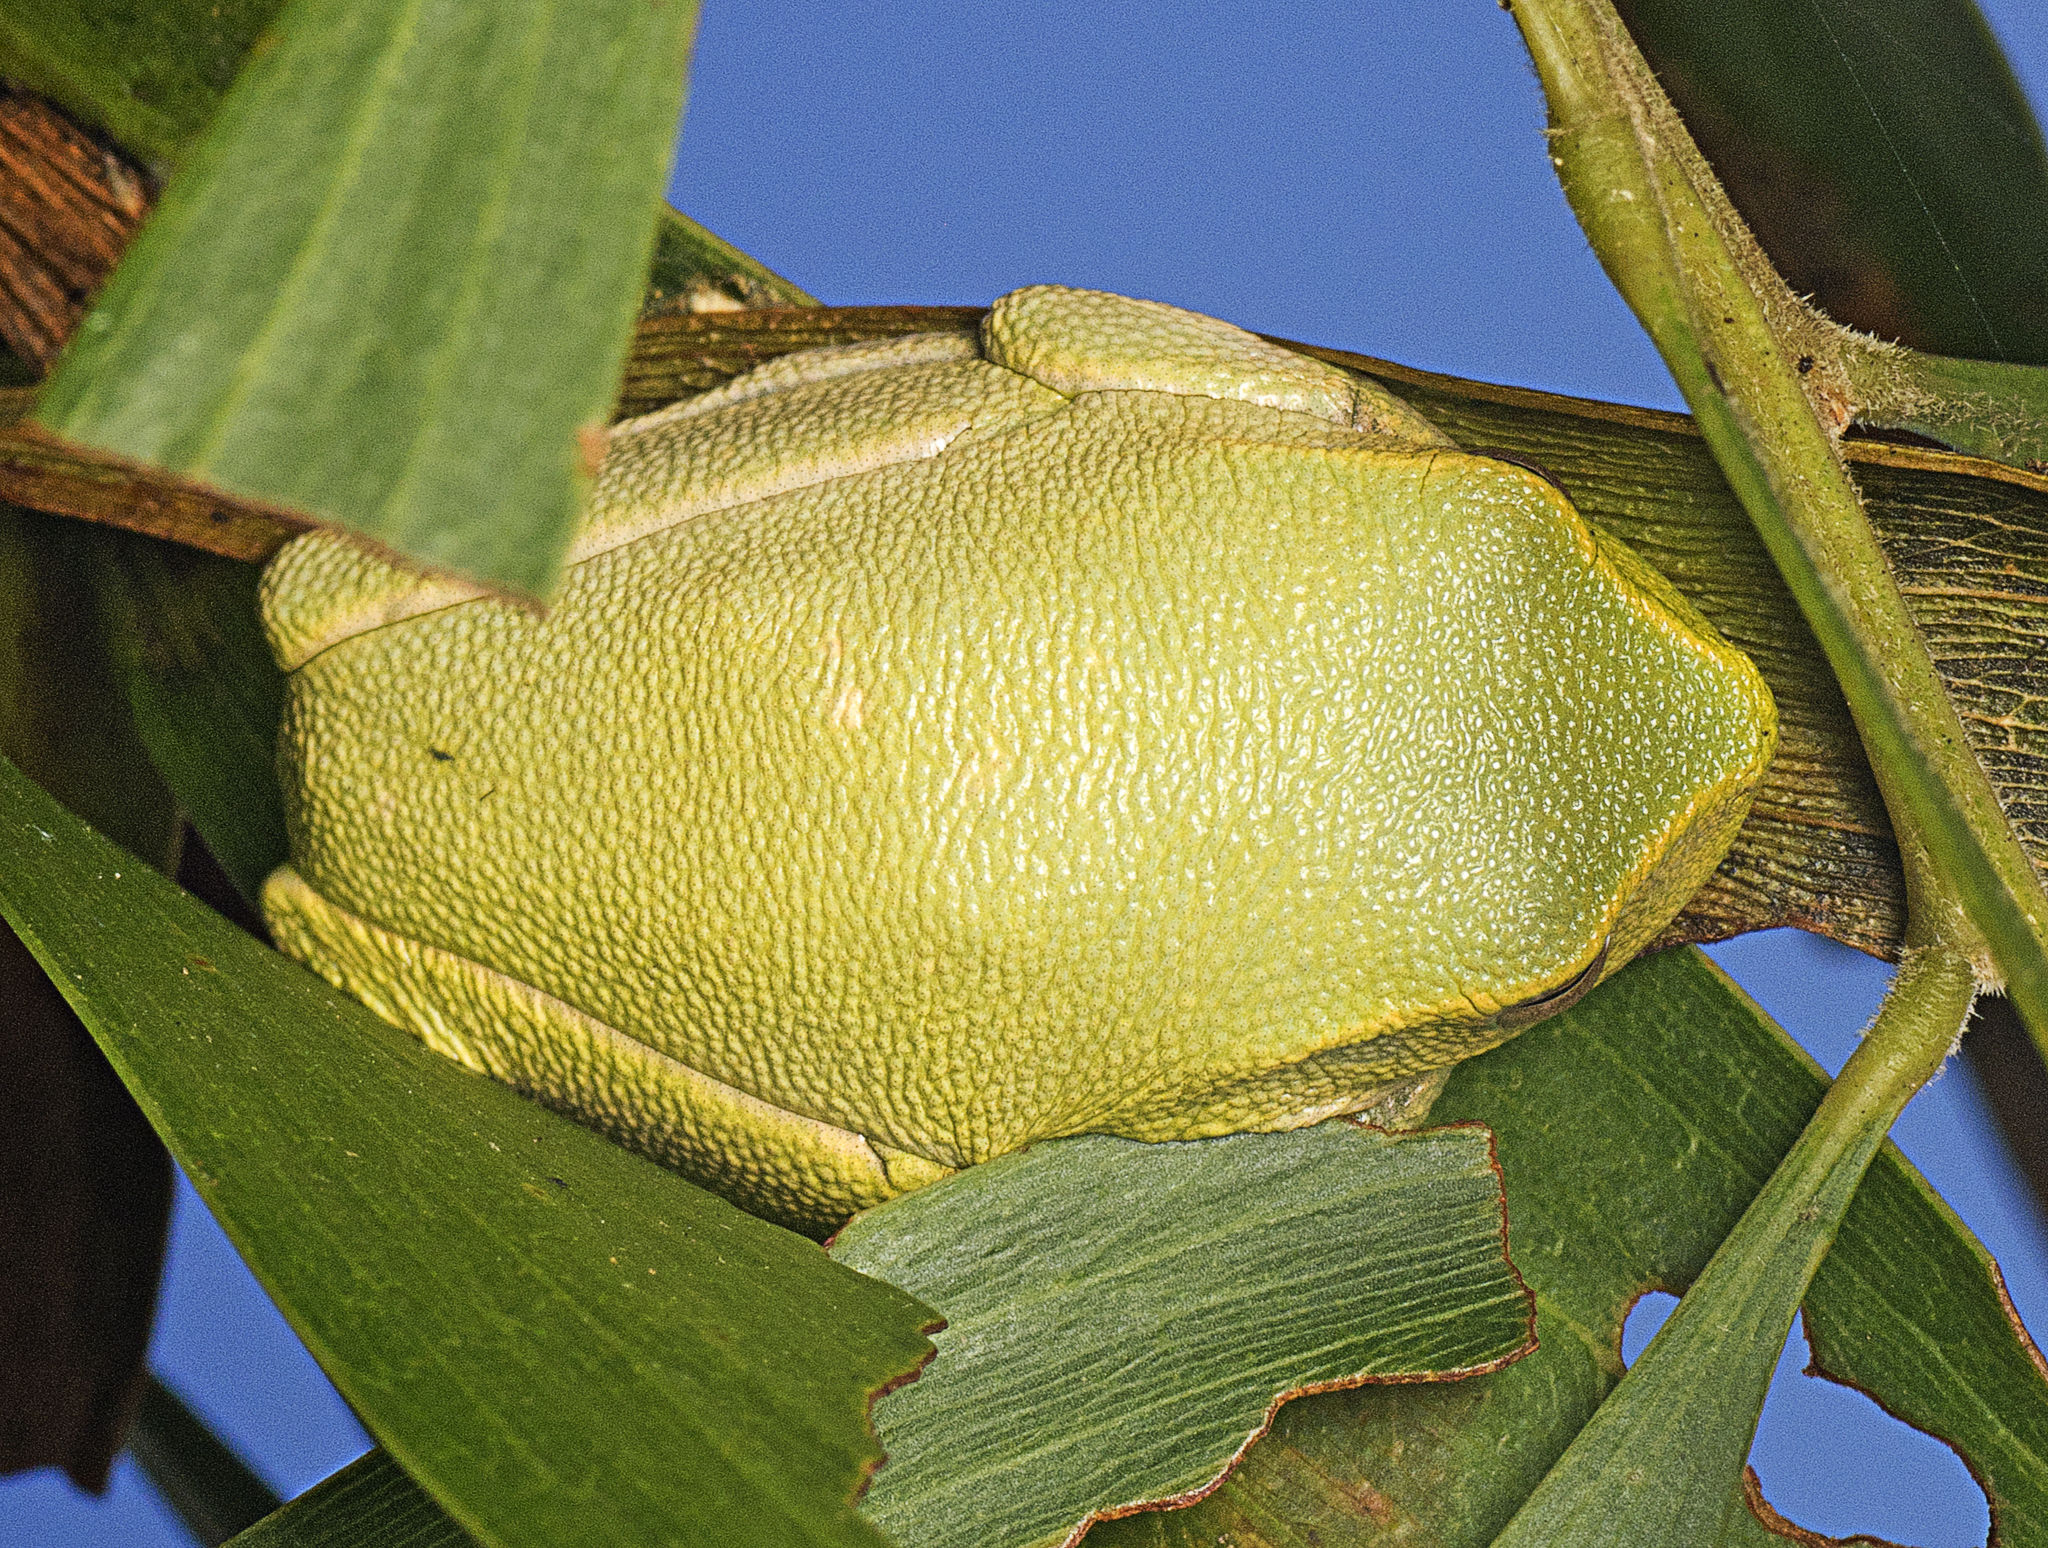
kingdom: Animalia
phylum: Chordata
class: Amphibia
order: Anura
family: Pelodryadidae
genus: Ranoidea
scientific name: Ranoidea gracilenta
